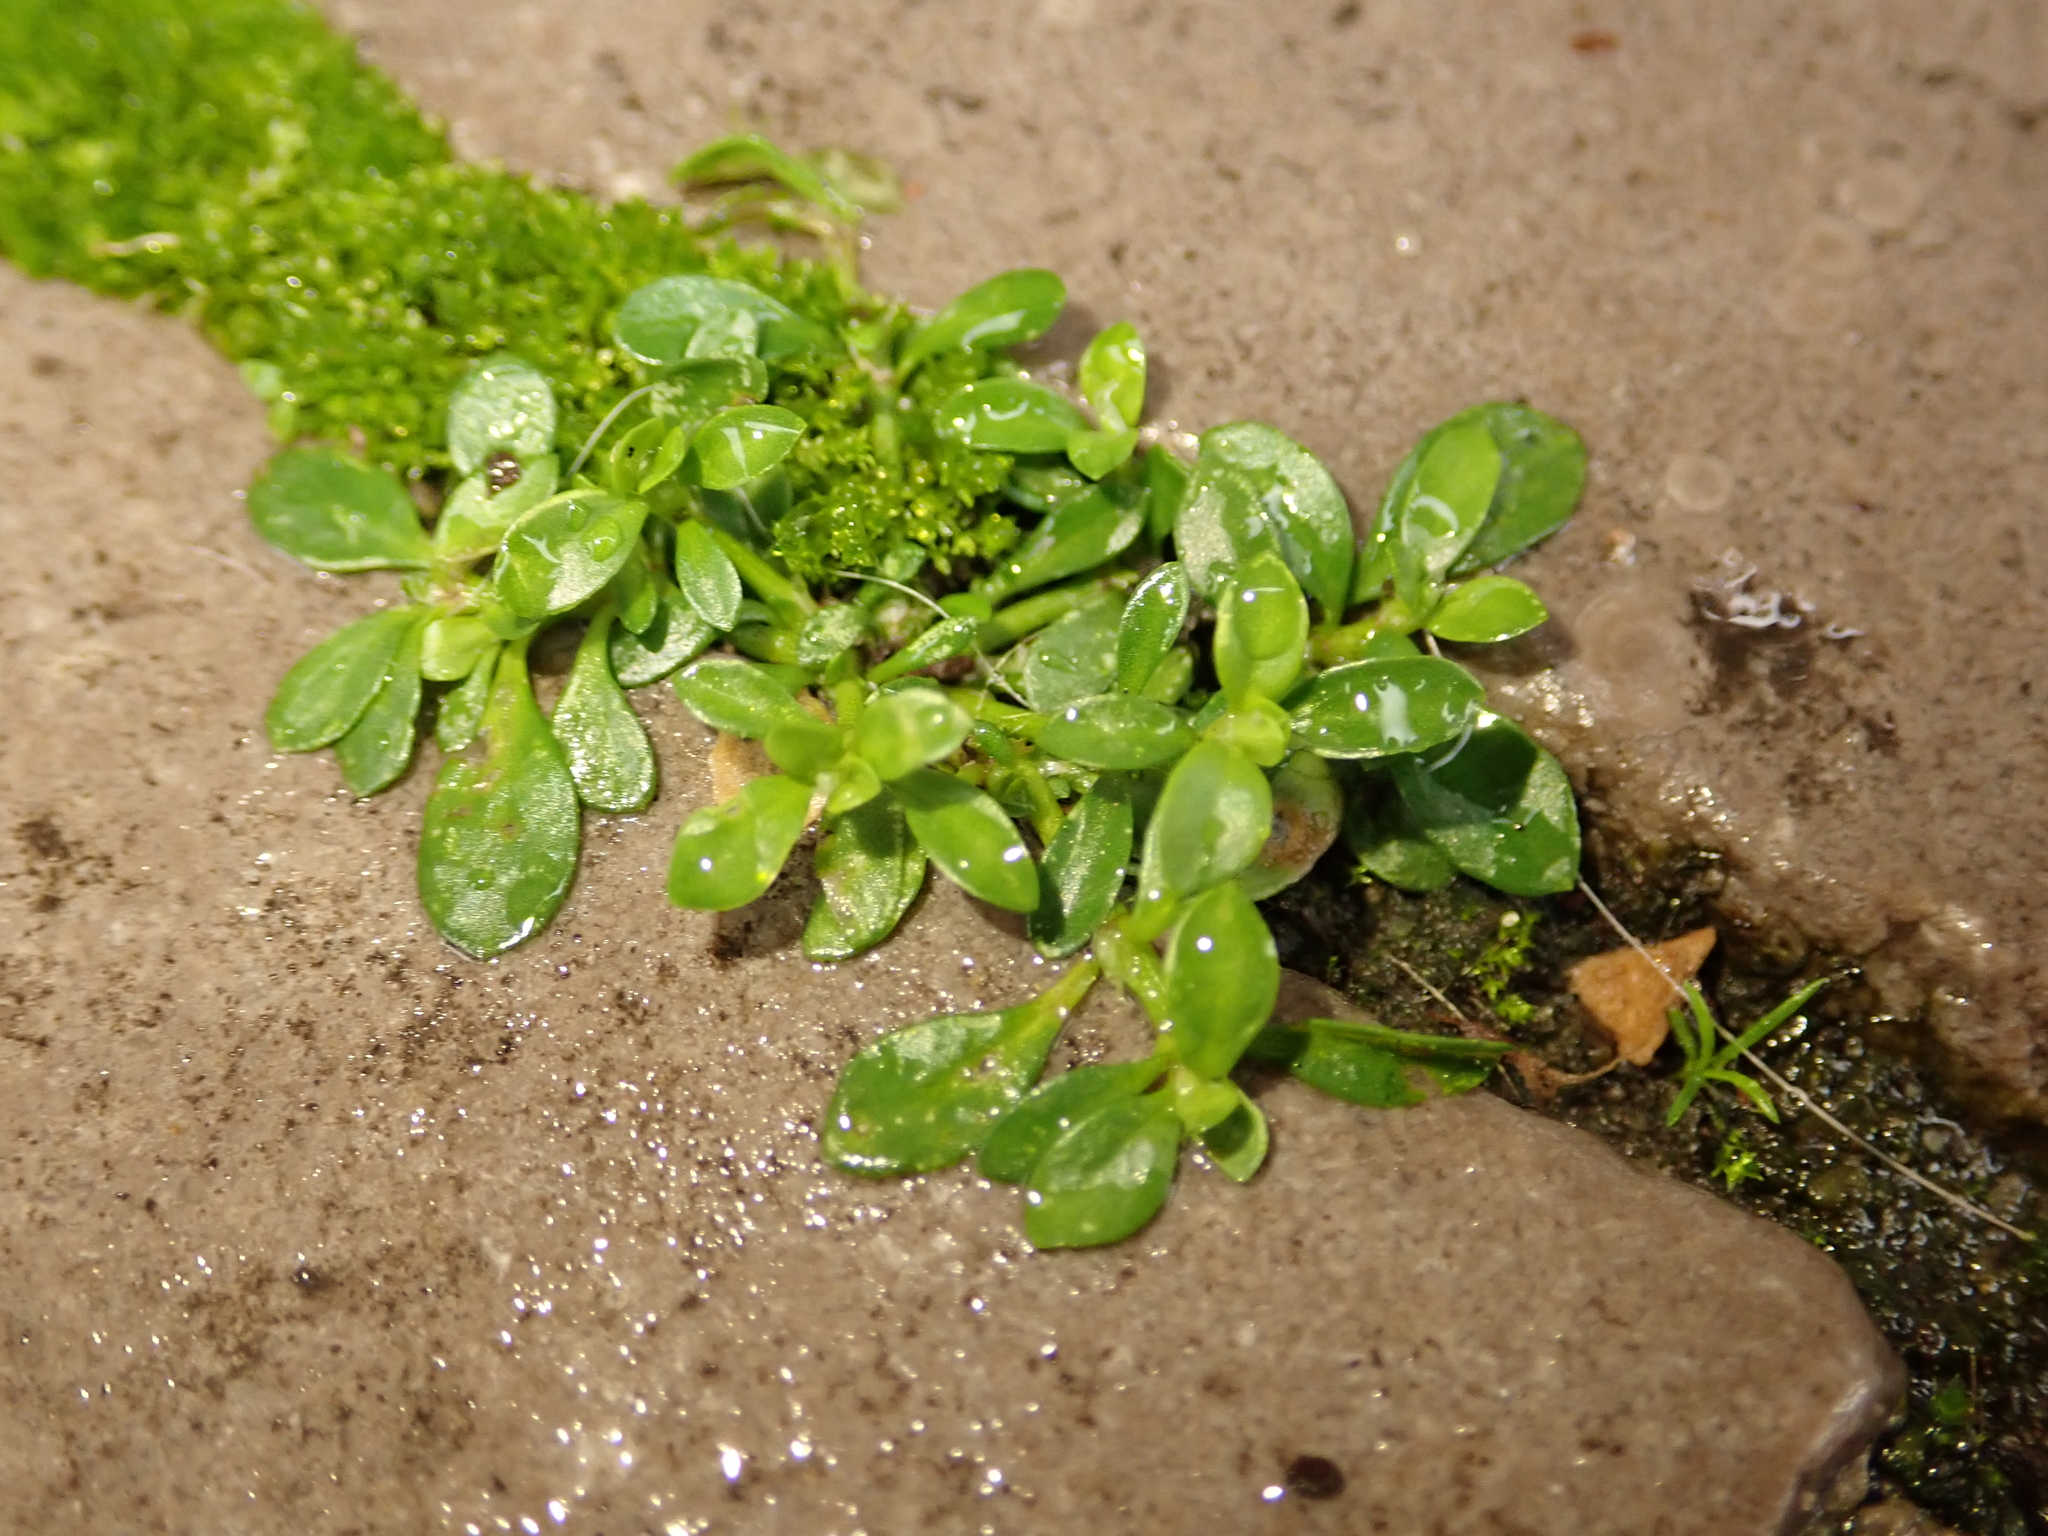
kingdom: Plantae
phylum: Tracheophyta
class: Magnoliopsida
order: Caryophyllales
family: Caryophyllaceae
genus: Herniaria
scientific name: Herniaria glabra
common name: Smooth rupturewort
